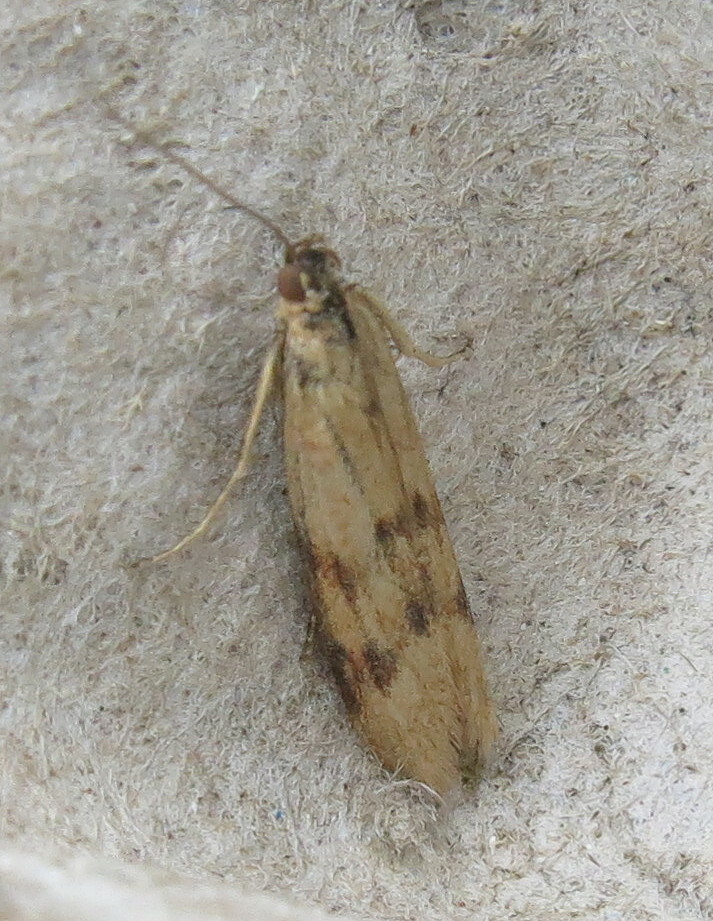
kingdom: Animalia
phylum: Arthropoda
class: Insecta
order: Lepidoptera
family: Pyralidae
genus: Homoeosoma
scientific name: Homoeosoma sinuella
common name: Twin-barred knot-horn
